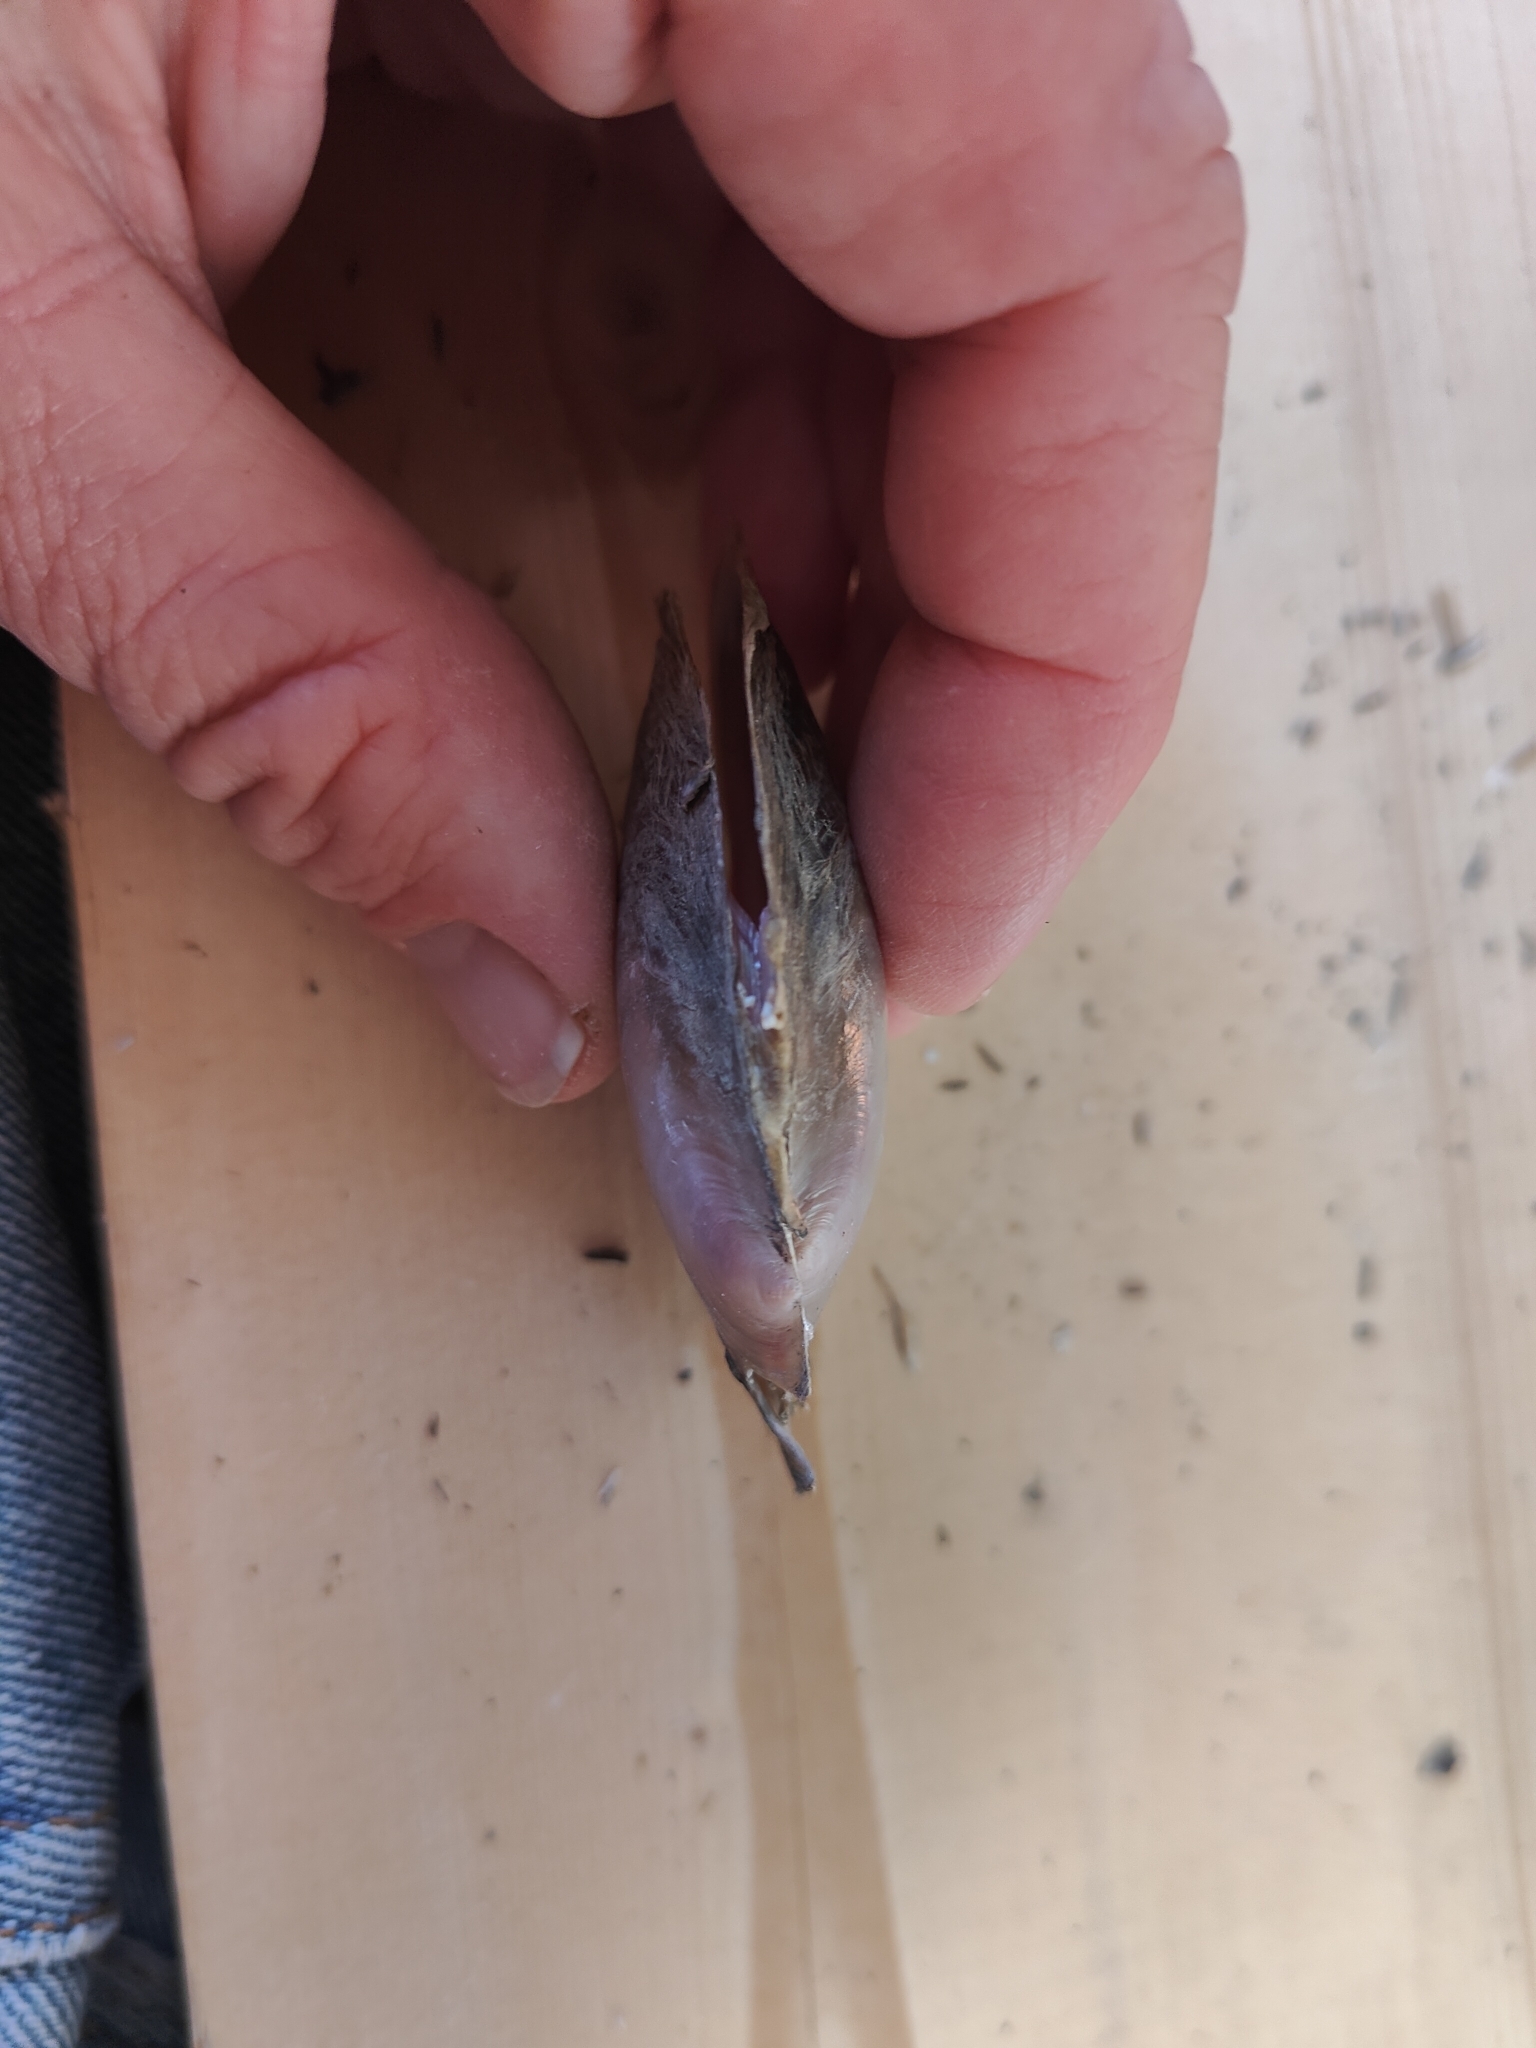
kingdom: Animalia
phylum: Mollusca
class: Bivalvia
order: Unionida
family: Unionidae
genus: Potamilus
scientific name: Potamilus ohiensis
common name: Pink papershell
